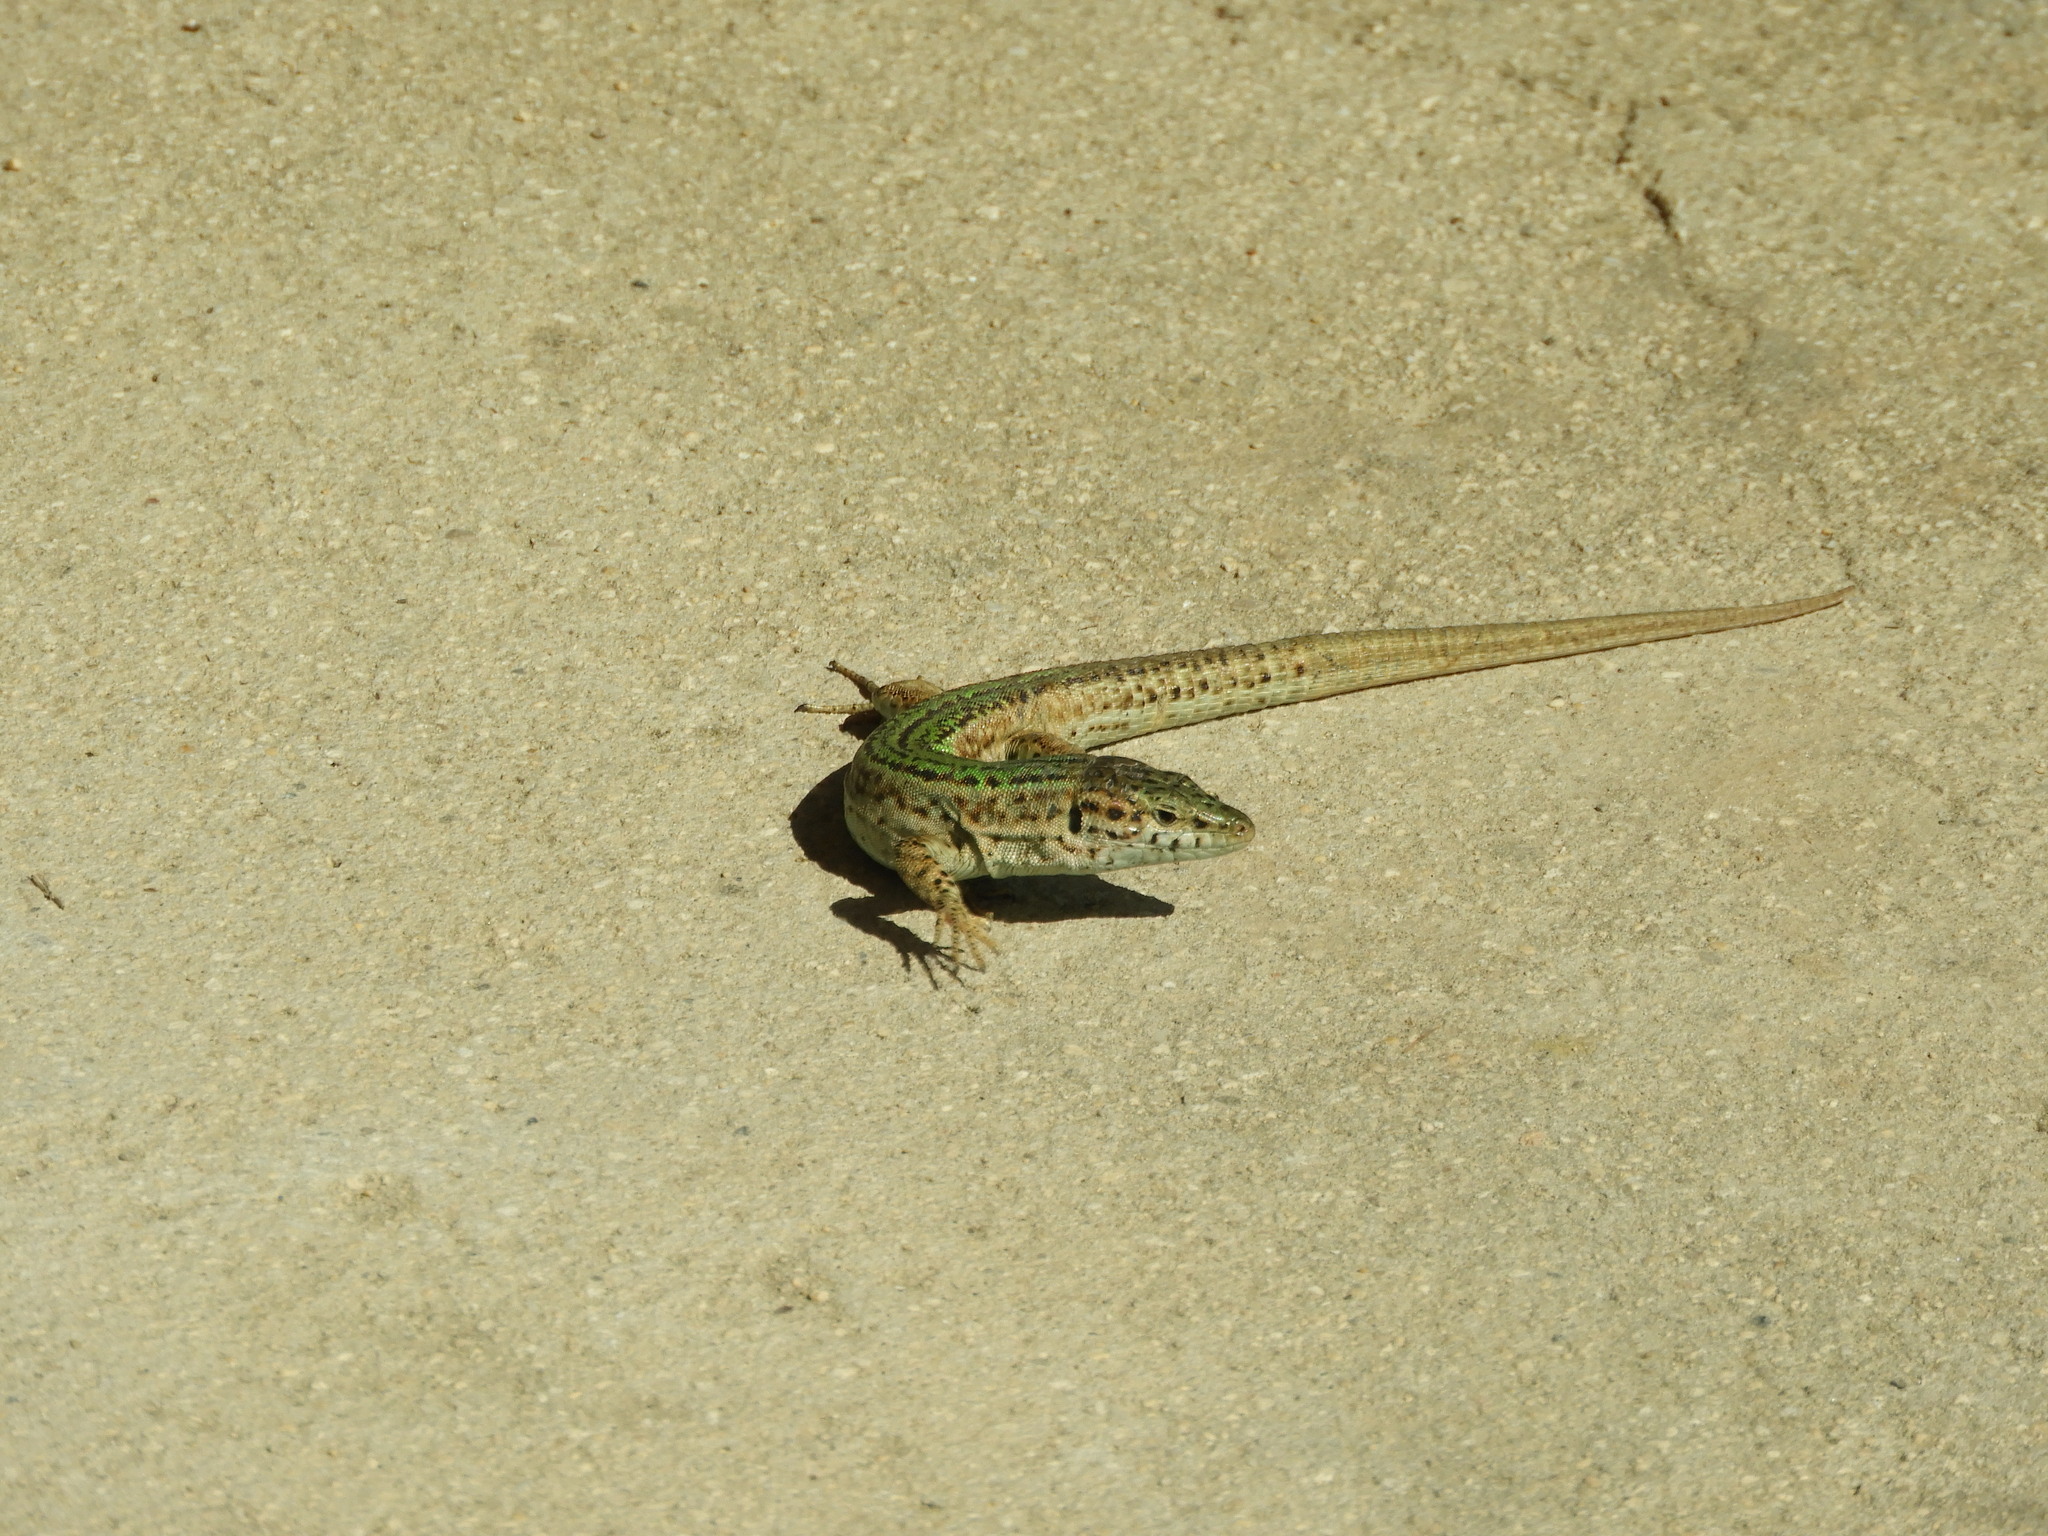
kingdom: Animalia
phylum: Chordata
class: Squamata
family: Lacertidae
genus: Podarcis
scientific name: Podarcis pityusensis
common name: Ibiza wall lizard
